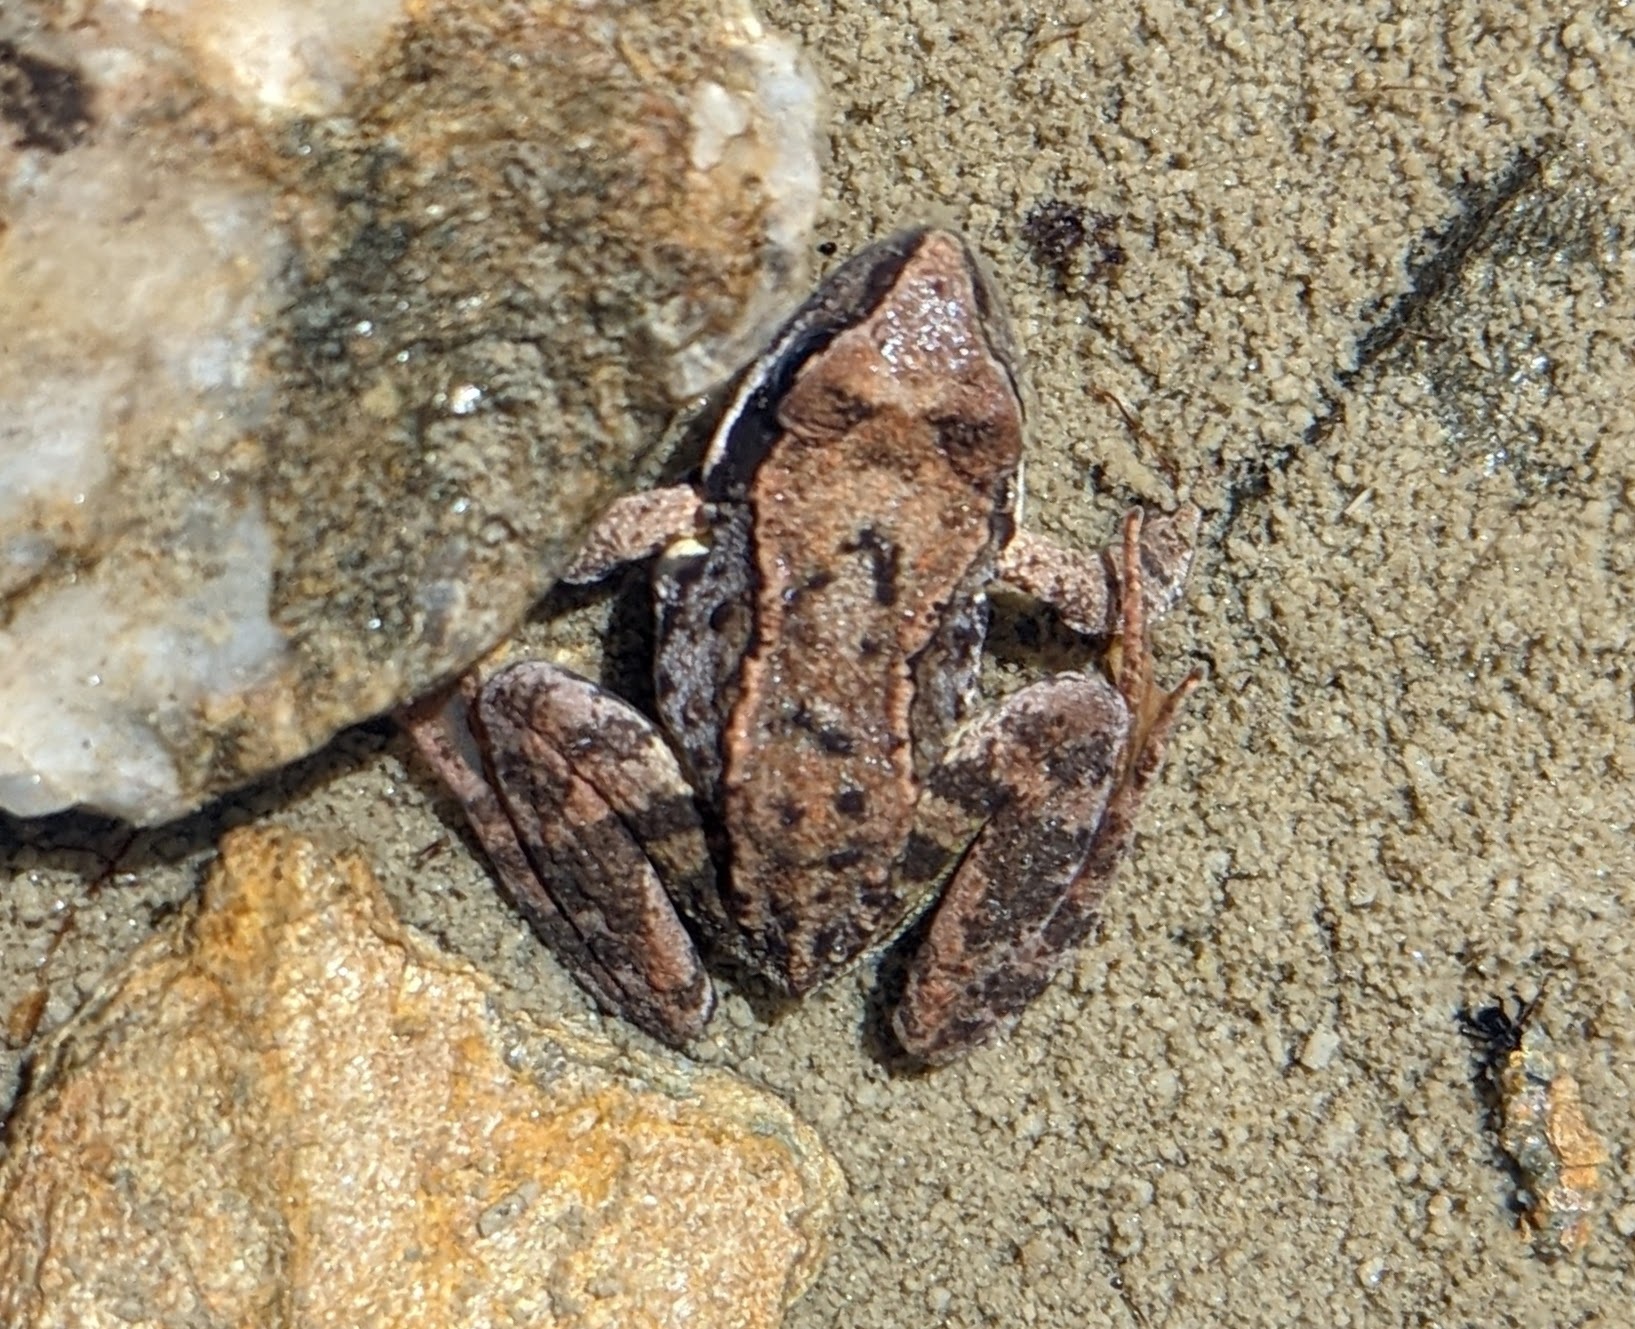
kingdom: Animalia
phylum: Chordata
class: Amphibia
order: Anura
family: Ranidae
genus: Rana
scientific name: Rana temporaria
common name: Common frog
